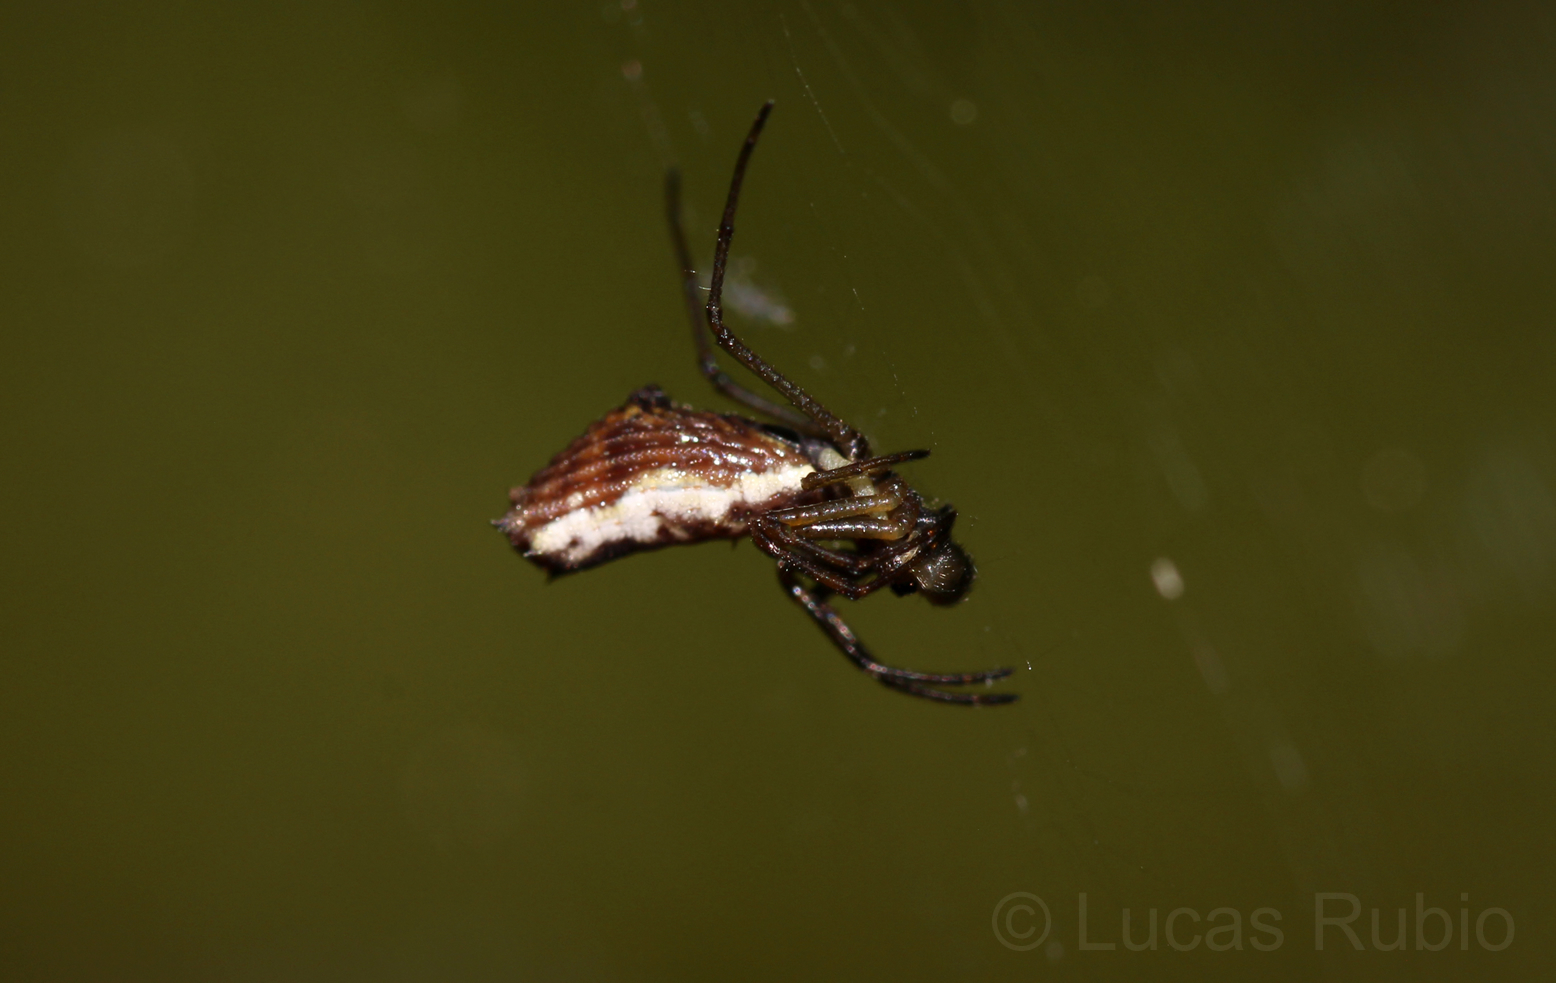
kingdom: Animalia
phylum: Arthropoda
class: Arachnida
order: Araneae
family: Araneidae
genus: Micrathena
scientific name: Micrathena nigrichelis
